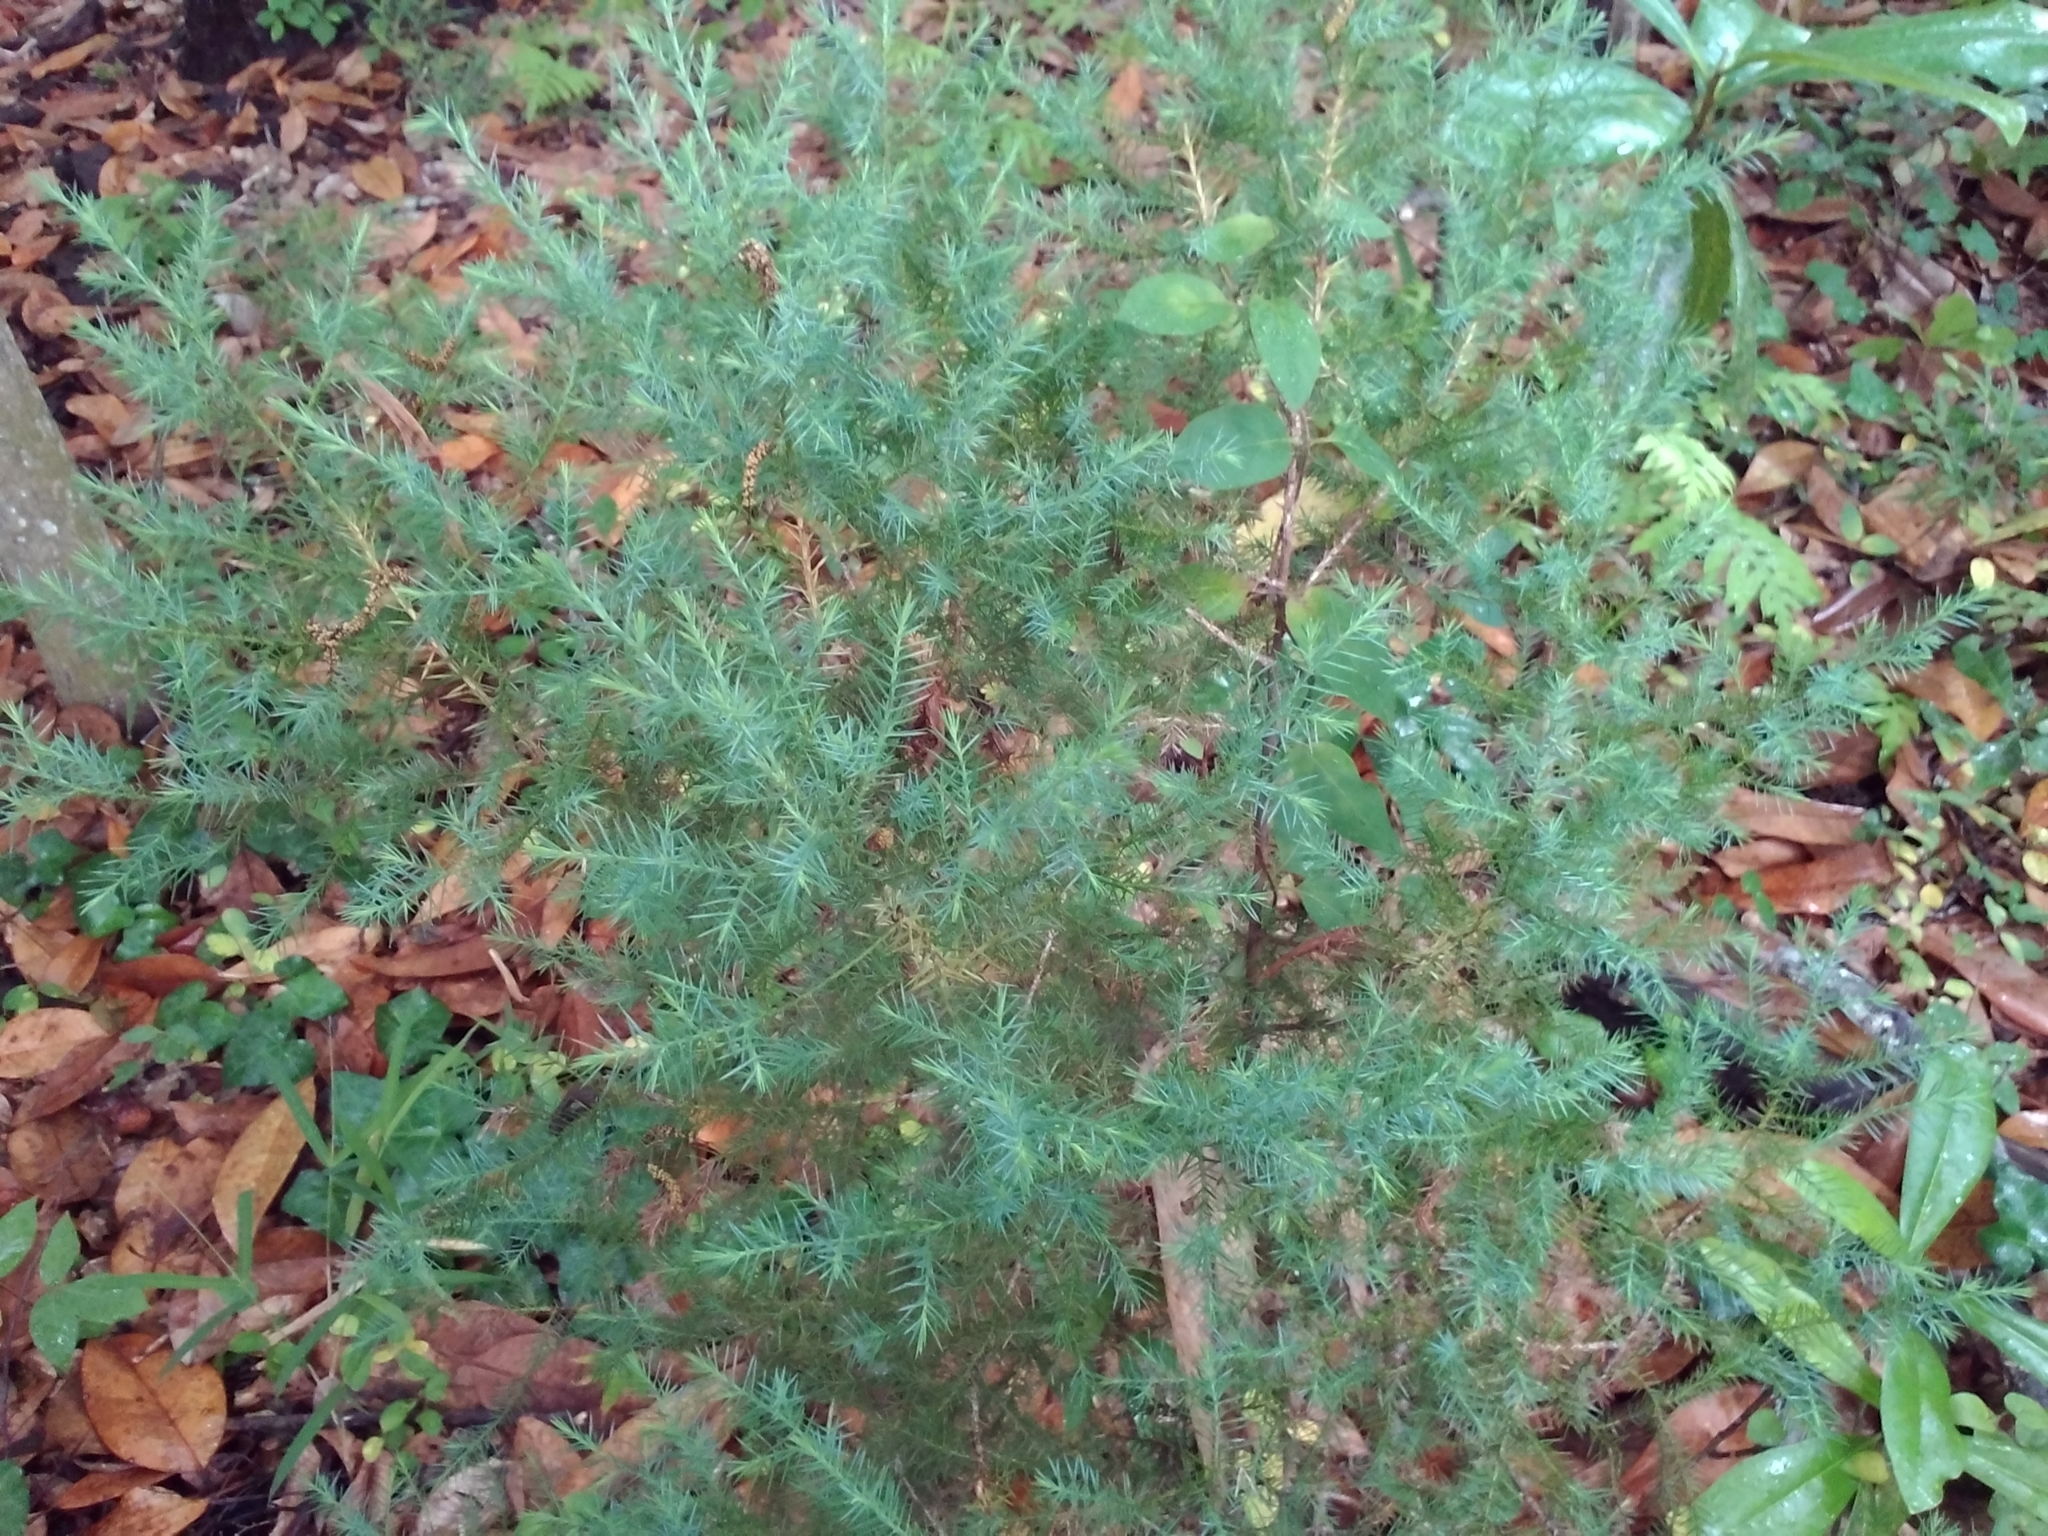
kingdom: Plantae
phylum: Tracheophyta
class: Pinopsida
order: Pinales
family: Cupressaceae
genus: Juniperus
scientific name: Juniperus virginiana
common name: Red juniper
